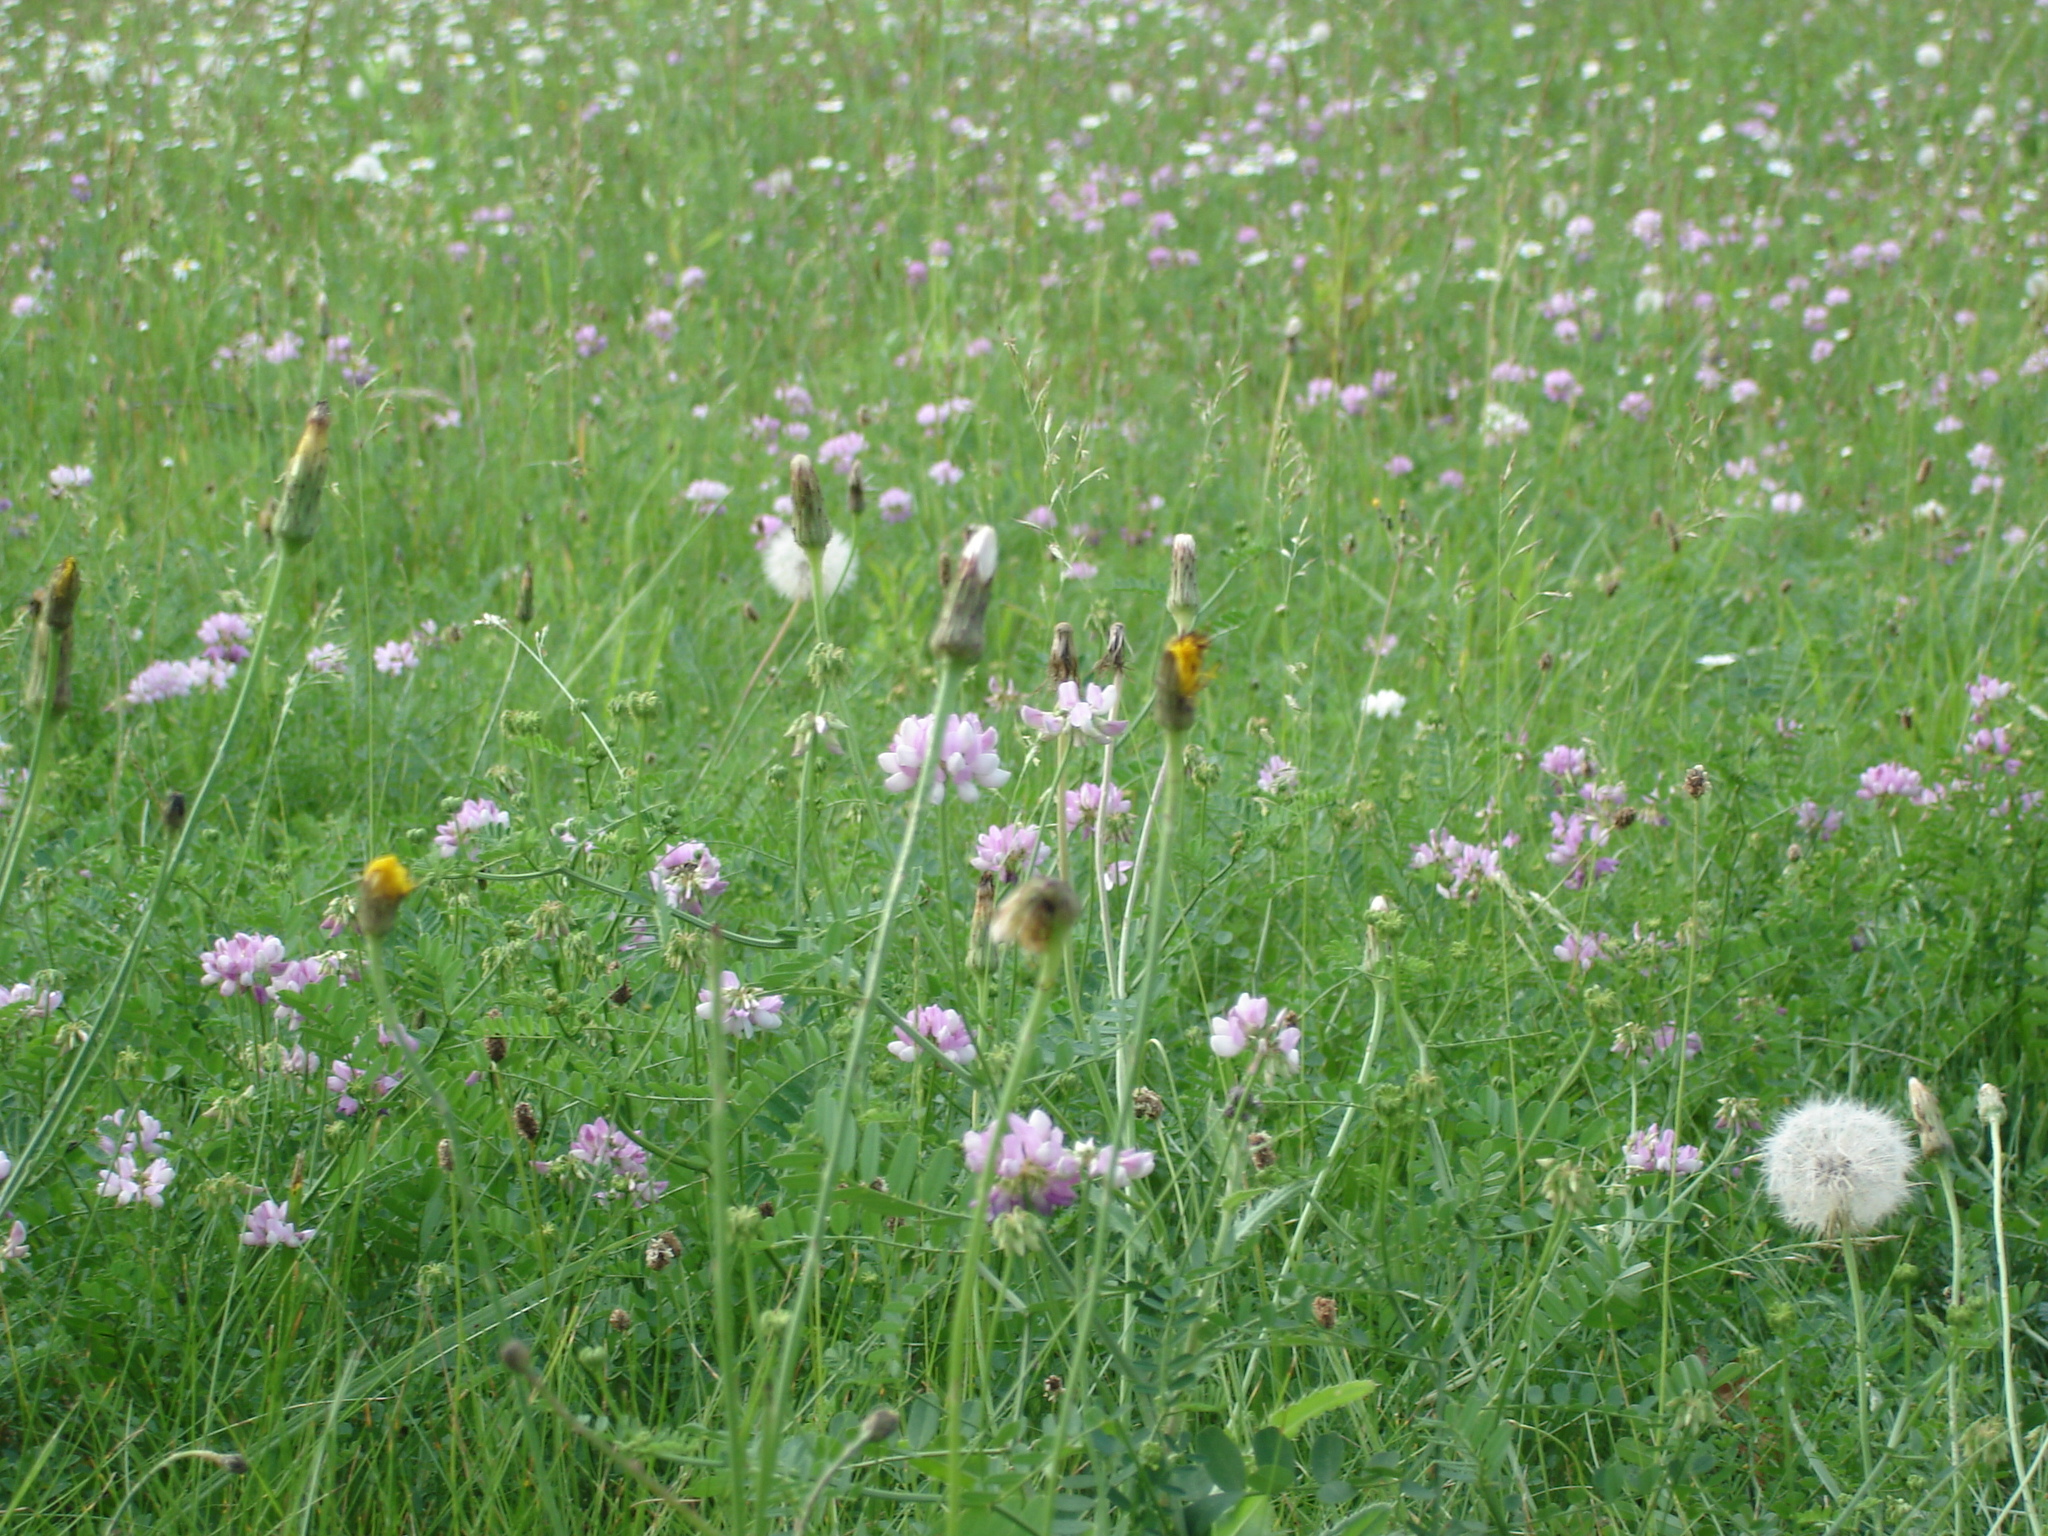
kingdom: Plantae
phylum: Tracheophyta
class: Magnoliopsida
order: Fabales
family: Fabaceae
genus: Coronilla
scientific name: Coronilla varia
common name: Crownvetch
